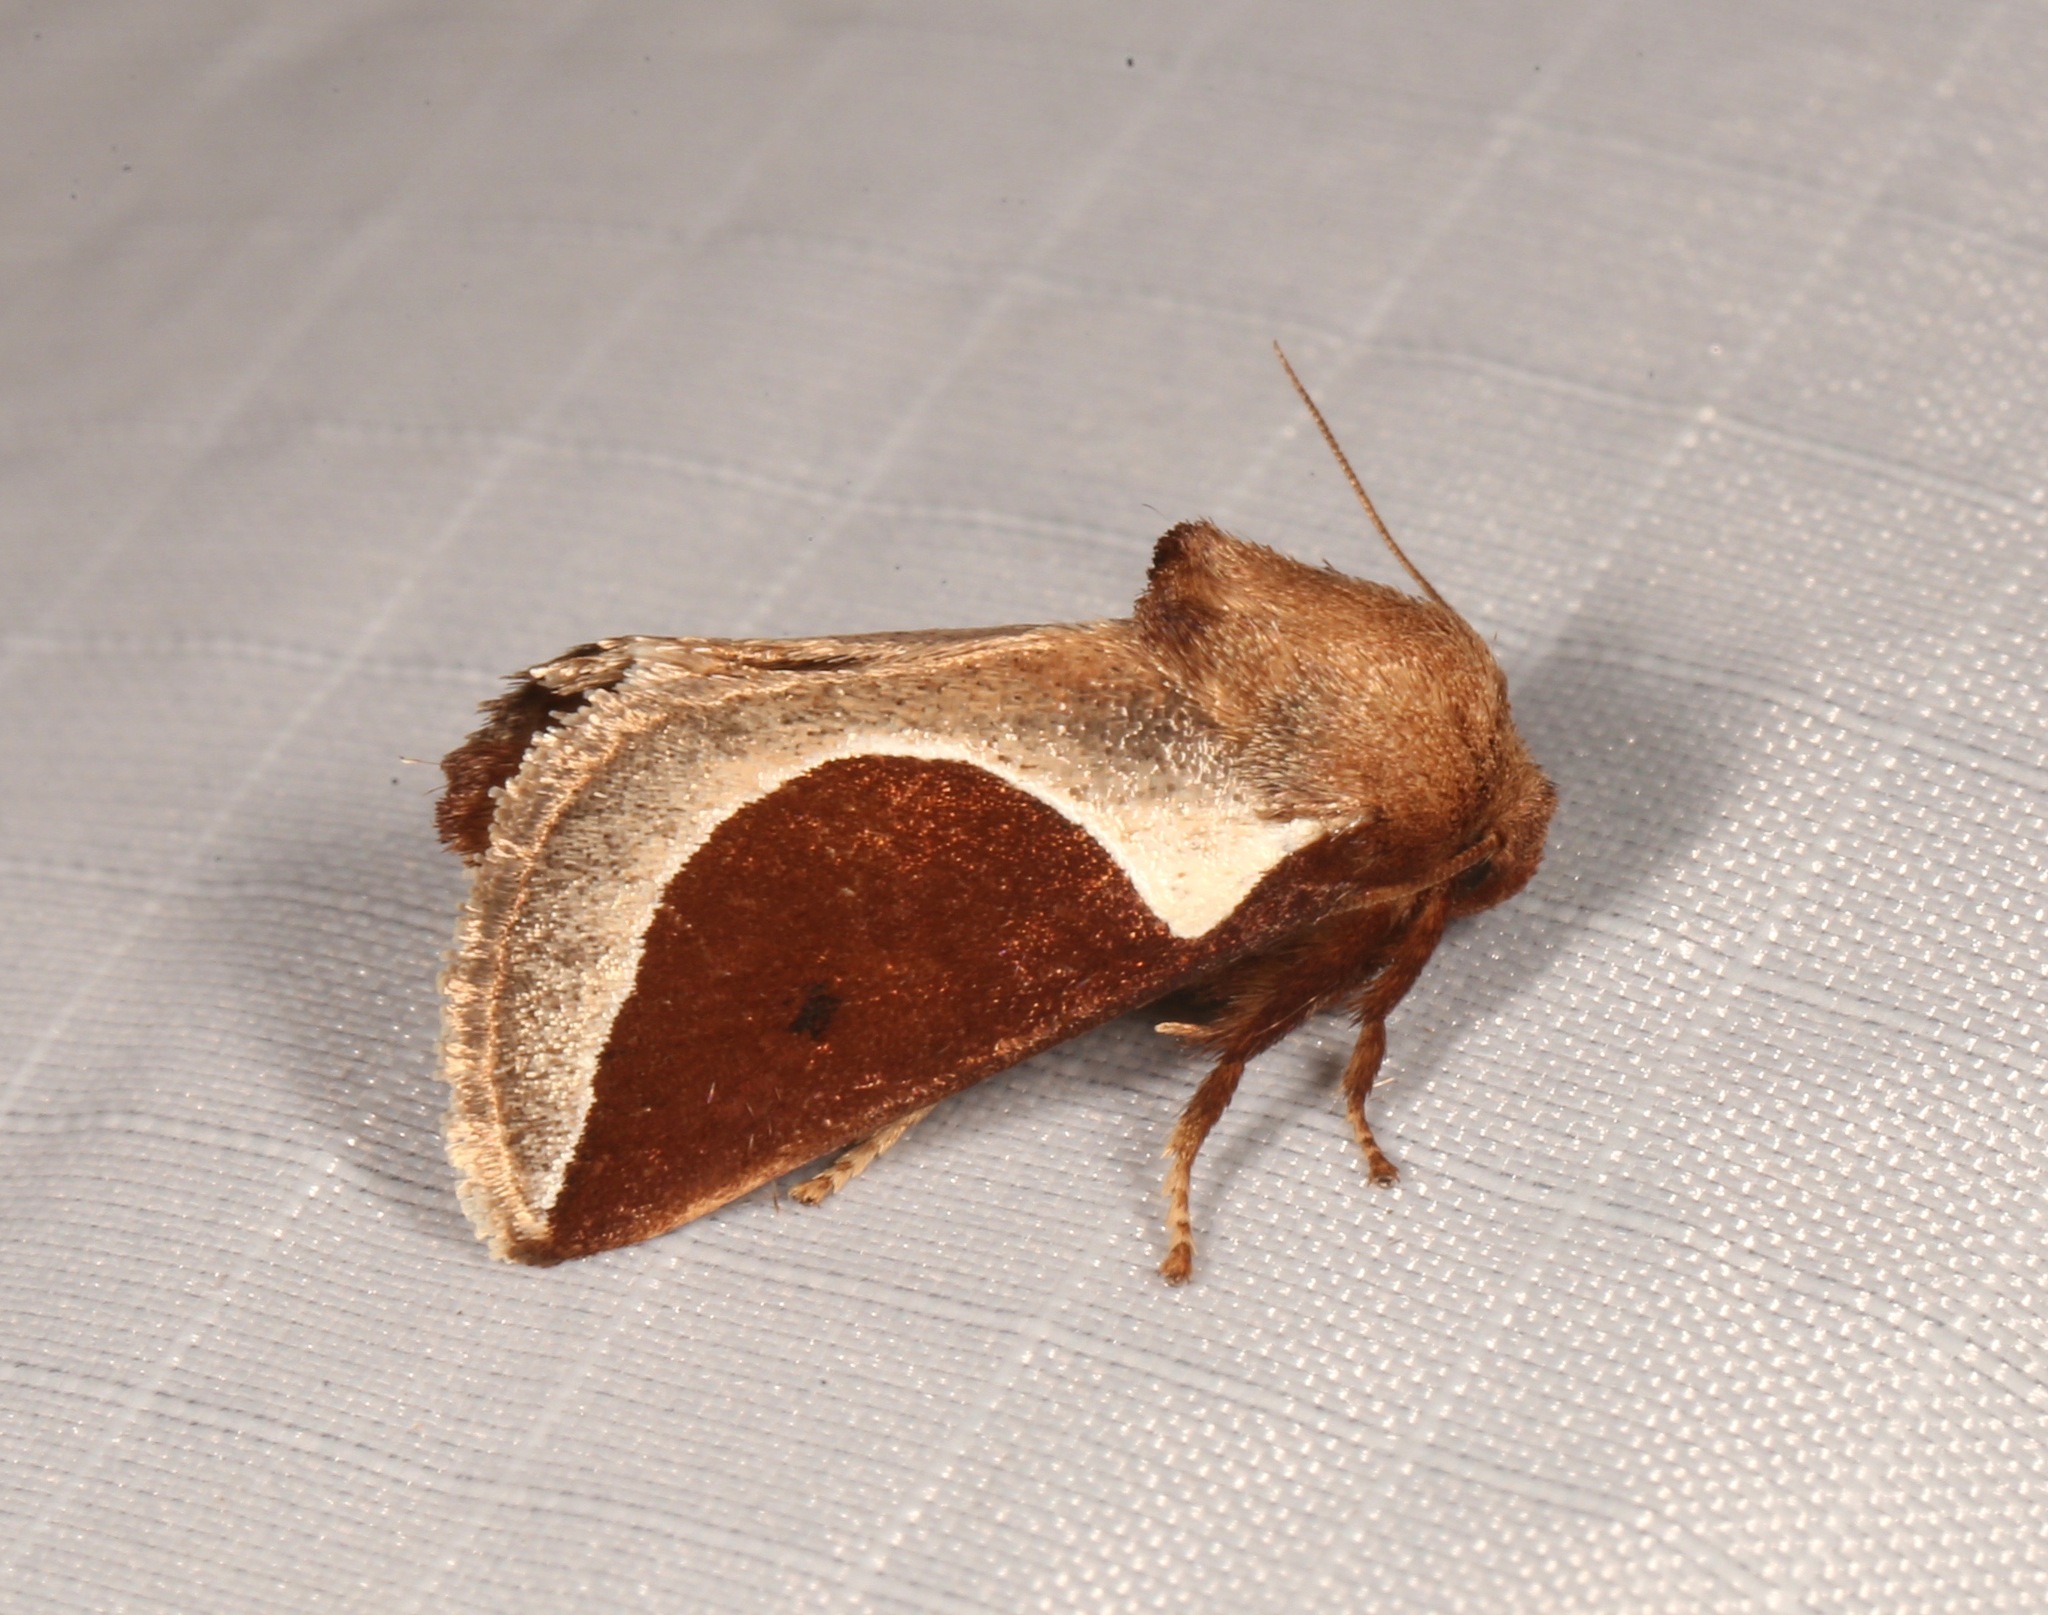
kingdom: Animalia
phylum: Arthropoda
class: Insecta
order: Lepidoptera
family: Limacodidae
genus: Prolimacodes
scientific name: Prolimacodes badia
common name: Skiff moth
